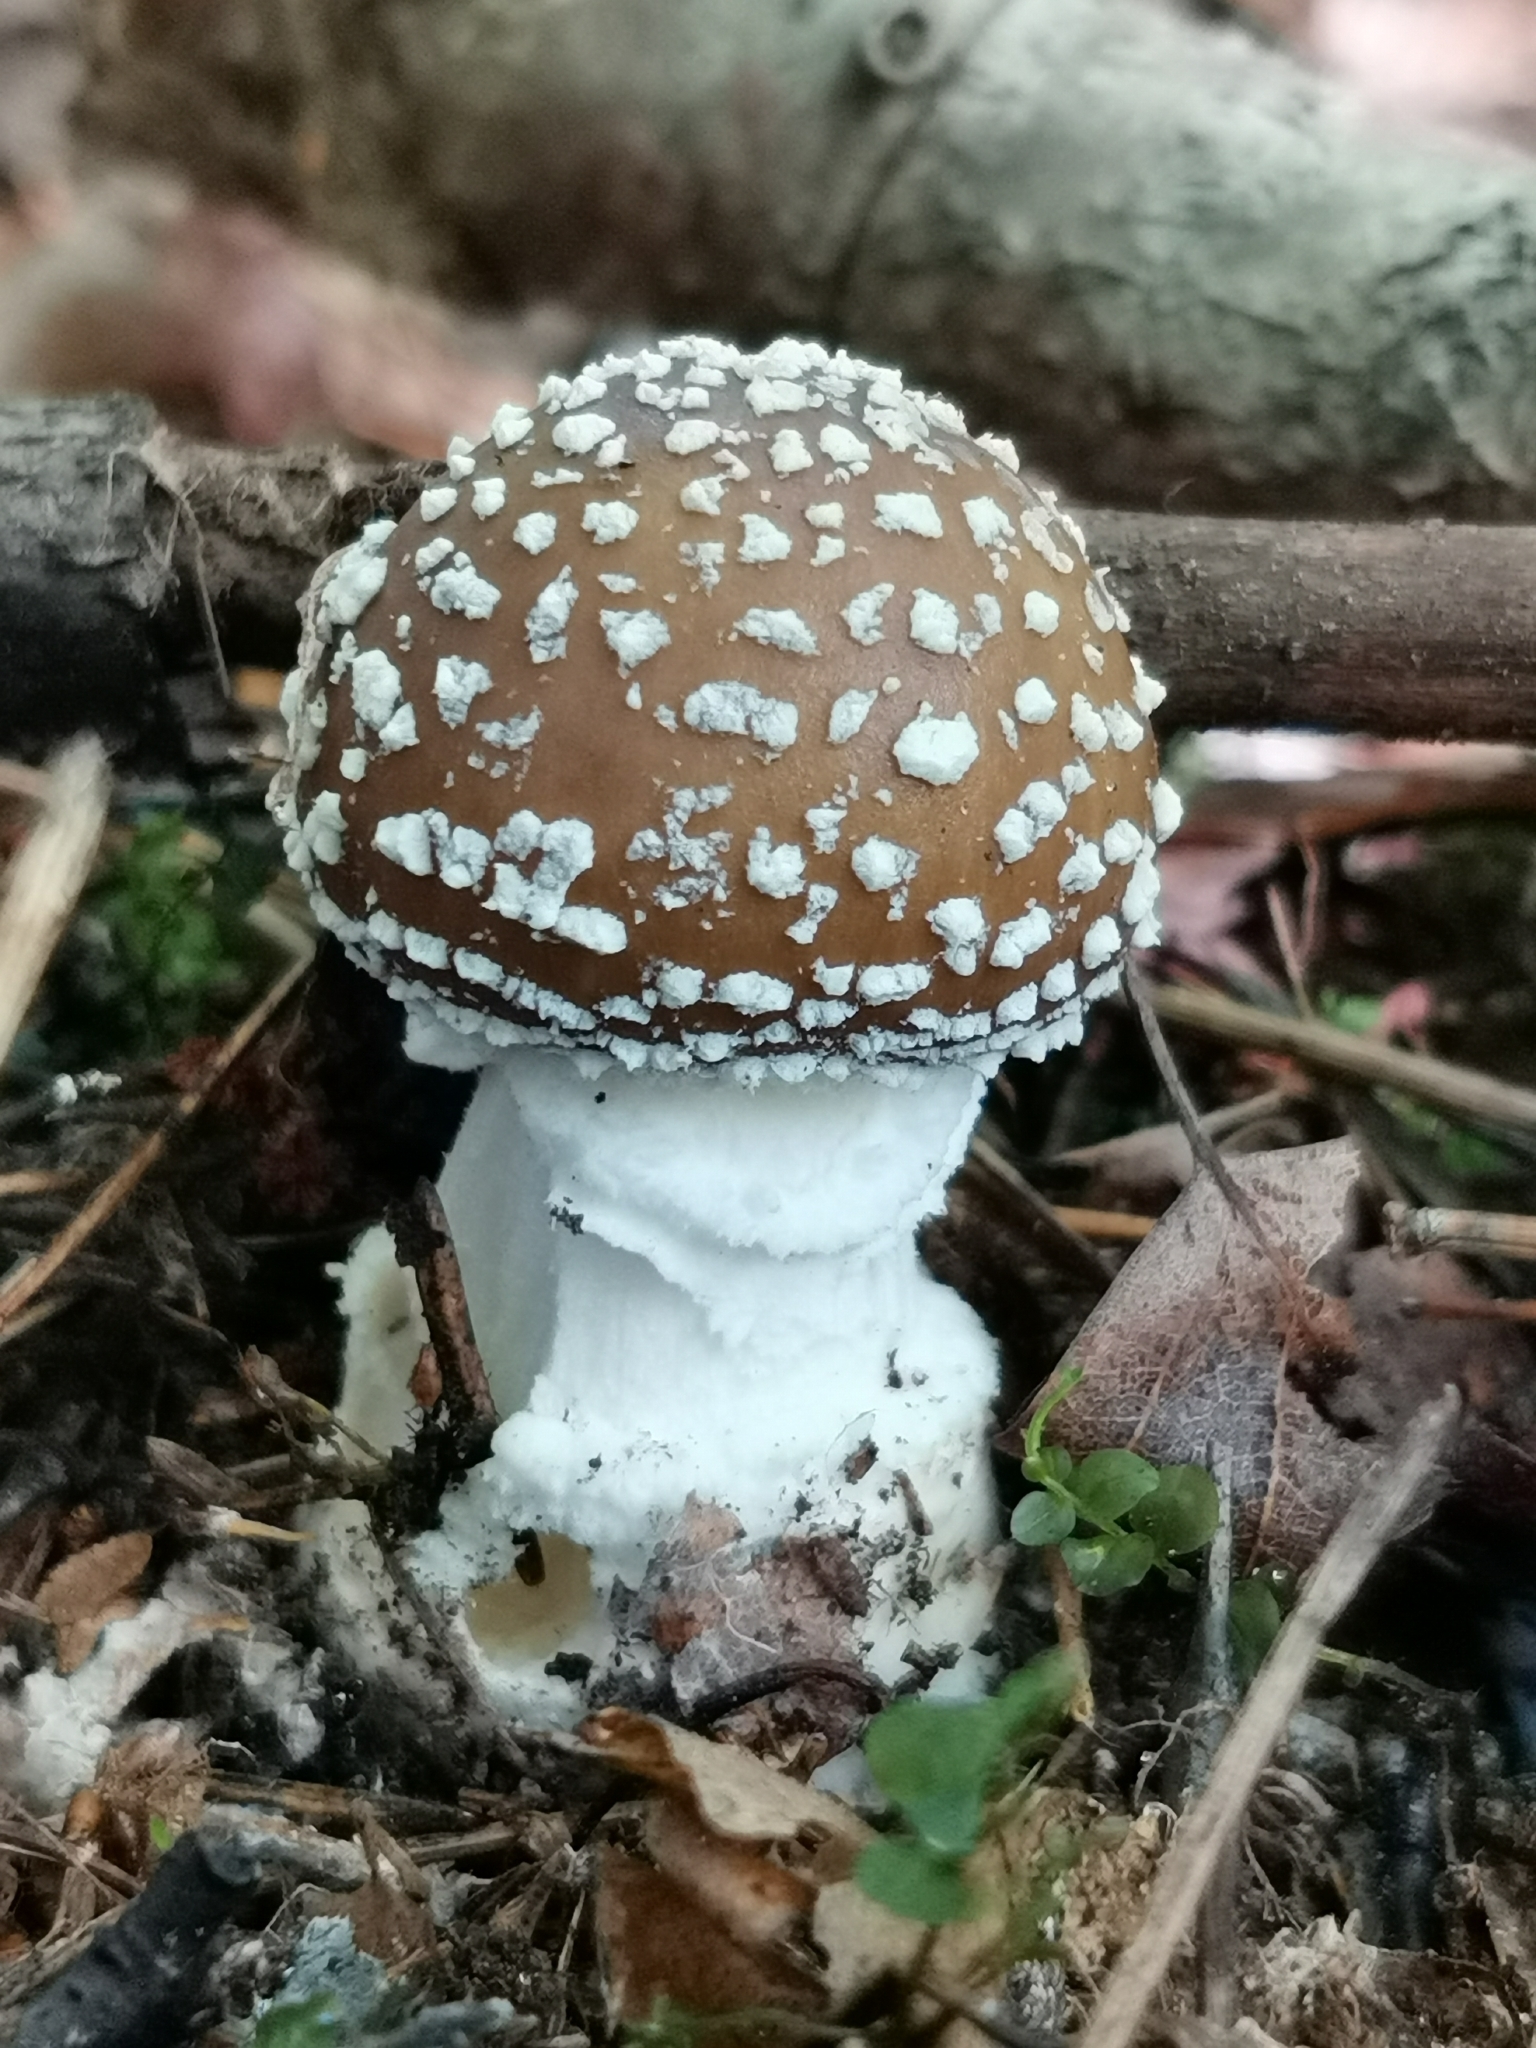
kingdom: Fungi
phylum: Basidiomycota
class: Agaricomycetes
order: Agaricales
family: Amanitaceae
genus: Amanita
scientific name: Amanita pantherina
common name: Panthercap
